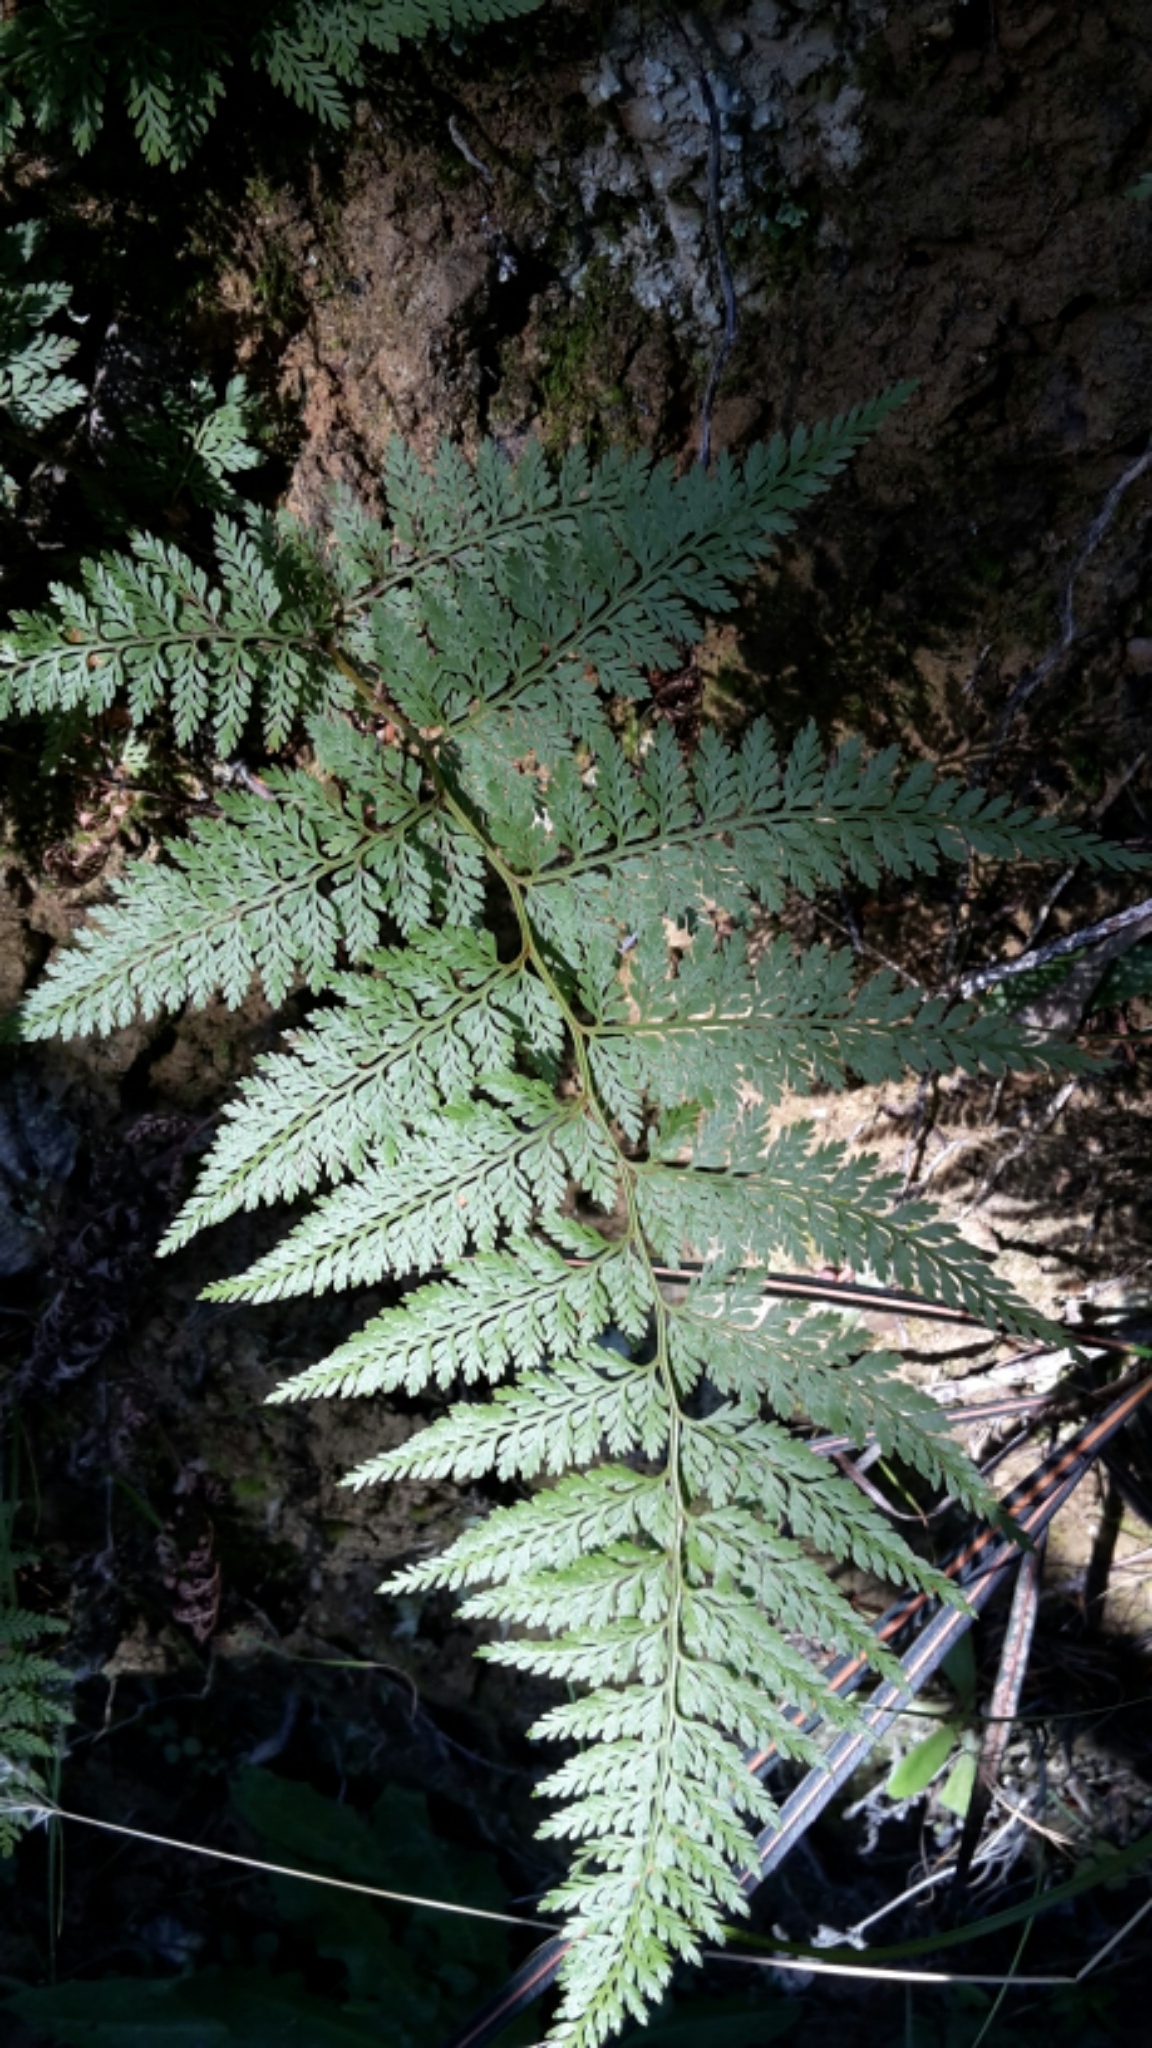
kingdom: Plantae
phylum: Tracheophyta
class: Polypodiopsida
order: Polypodiales
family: Dennstaedtiaceae
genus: Paesia
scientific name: Paesia scaberula
